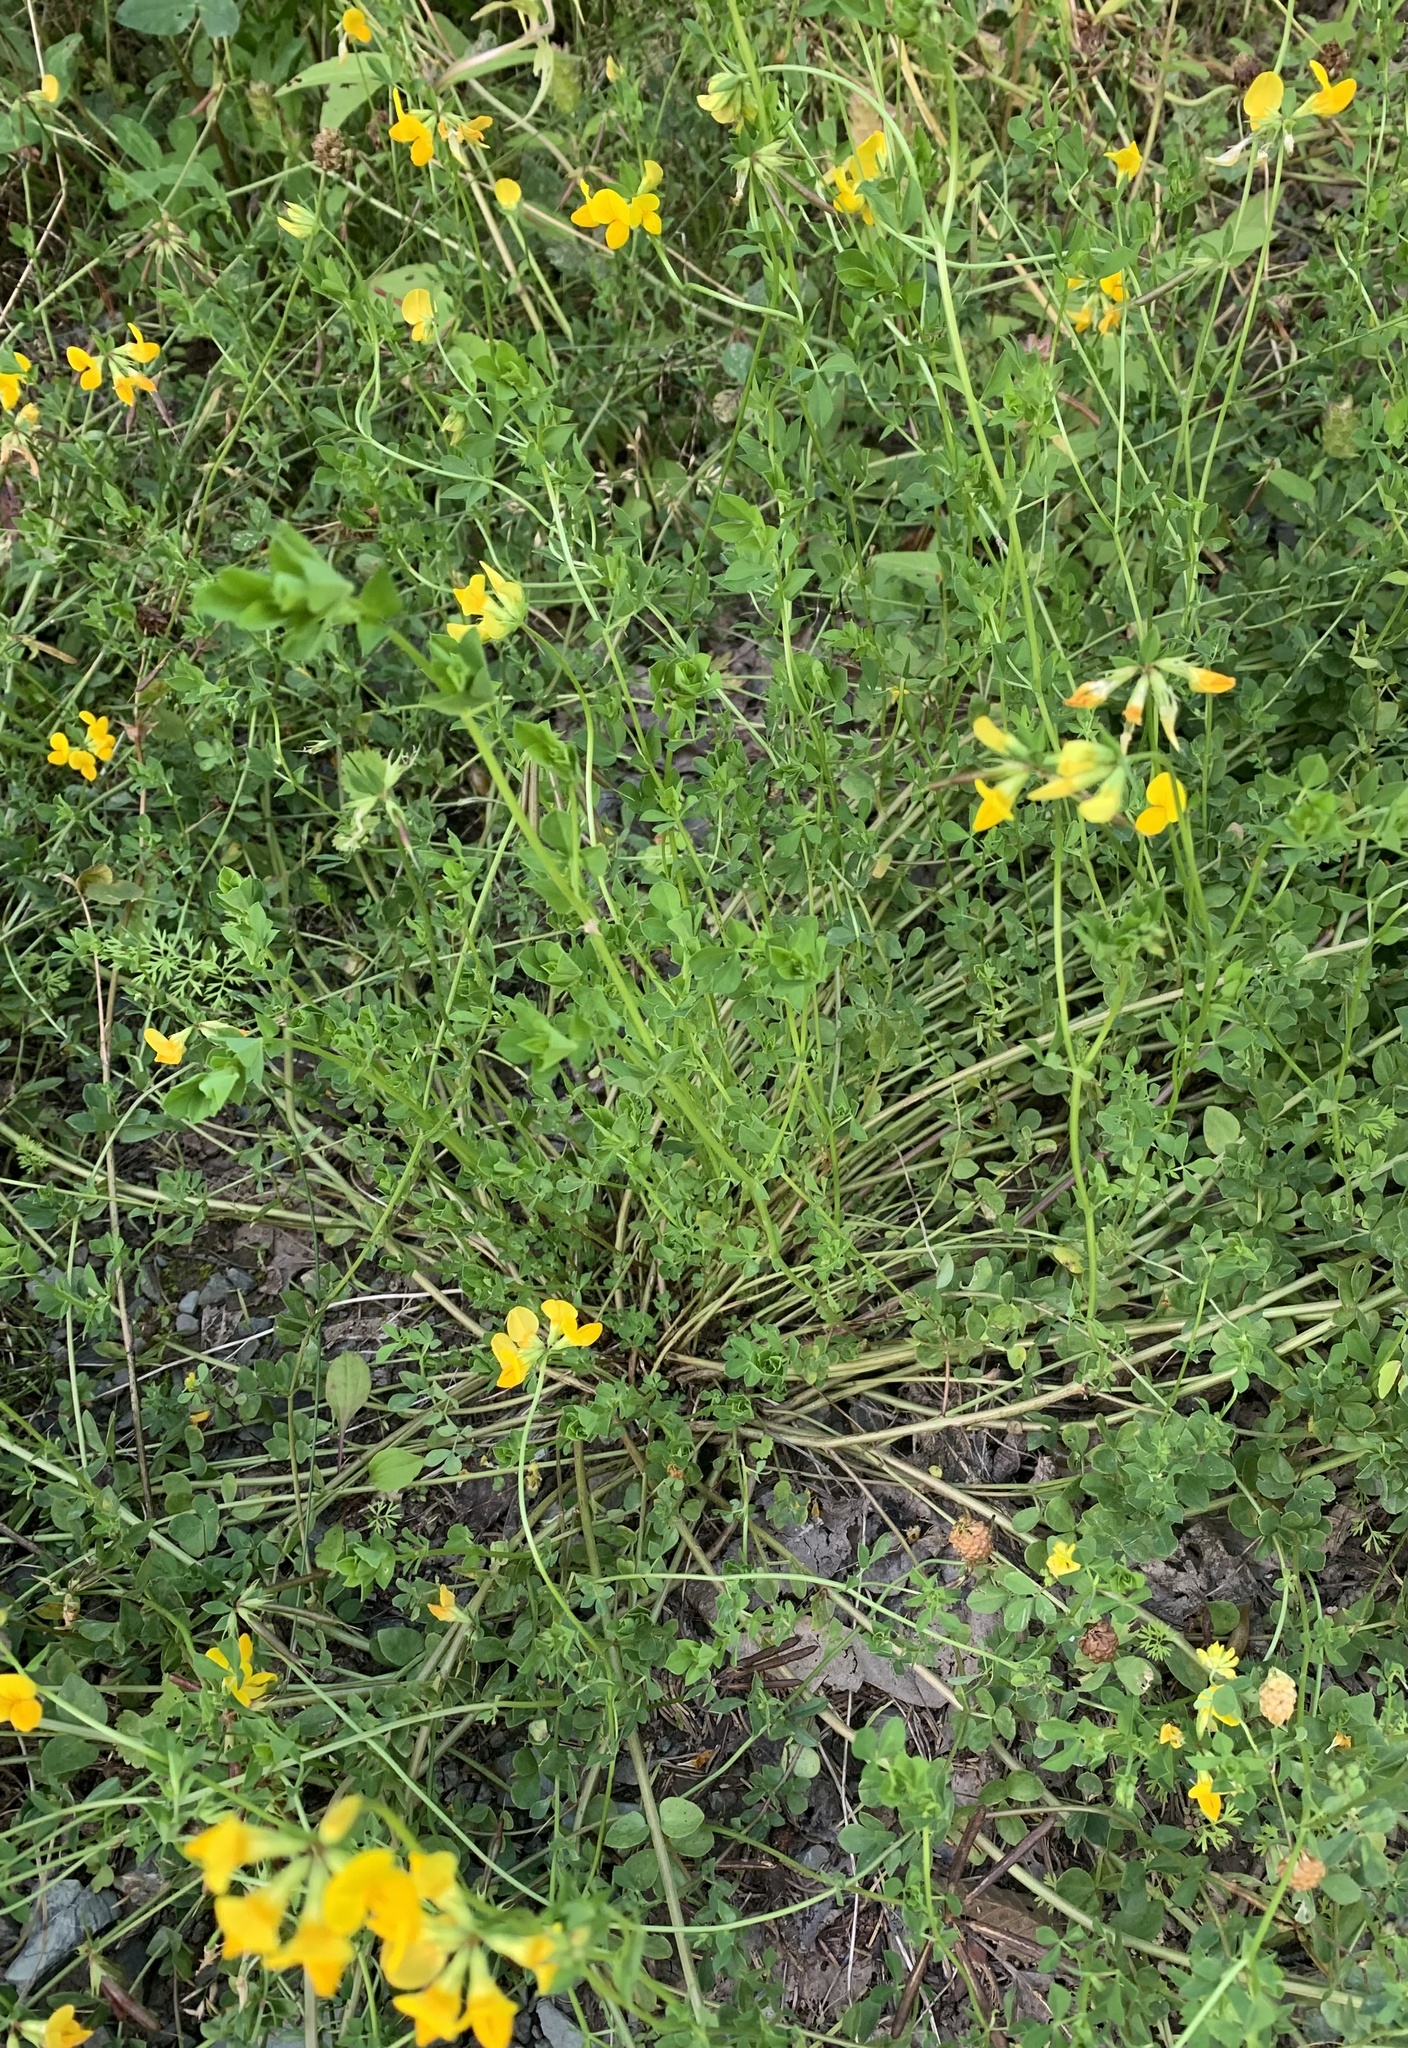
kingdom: Plantae
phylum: Tracheophyta
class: Magnoliopsida
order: Fabales
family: Fabaceae
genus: Lotus
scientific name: Lotus corniculatus
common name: Common bird's-foot-trefoil
